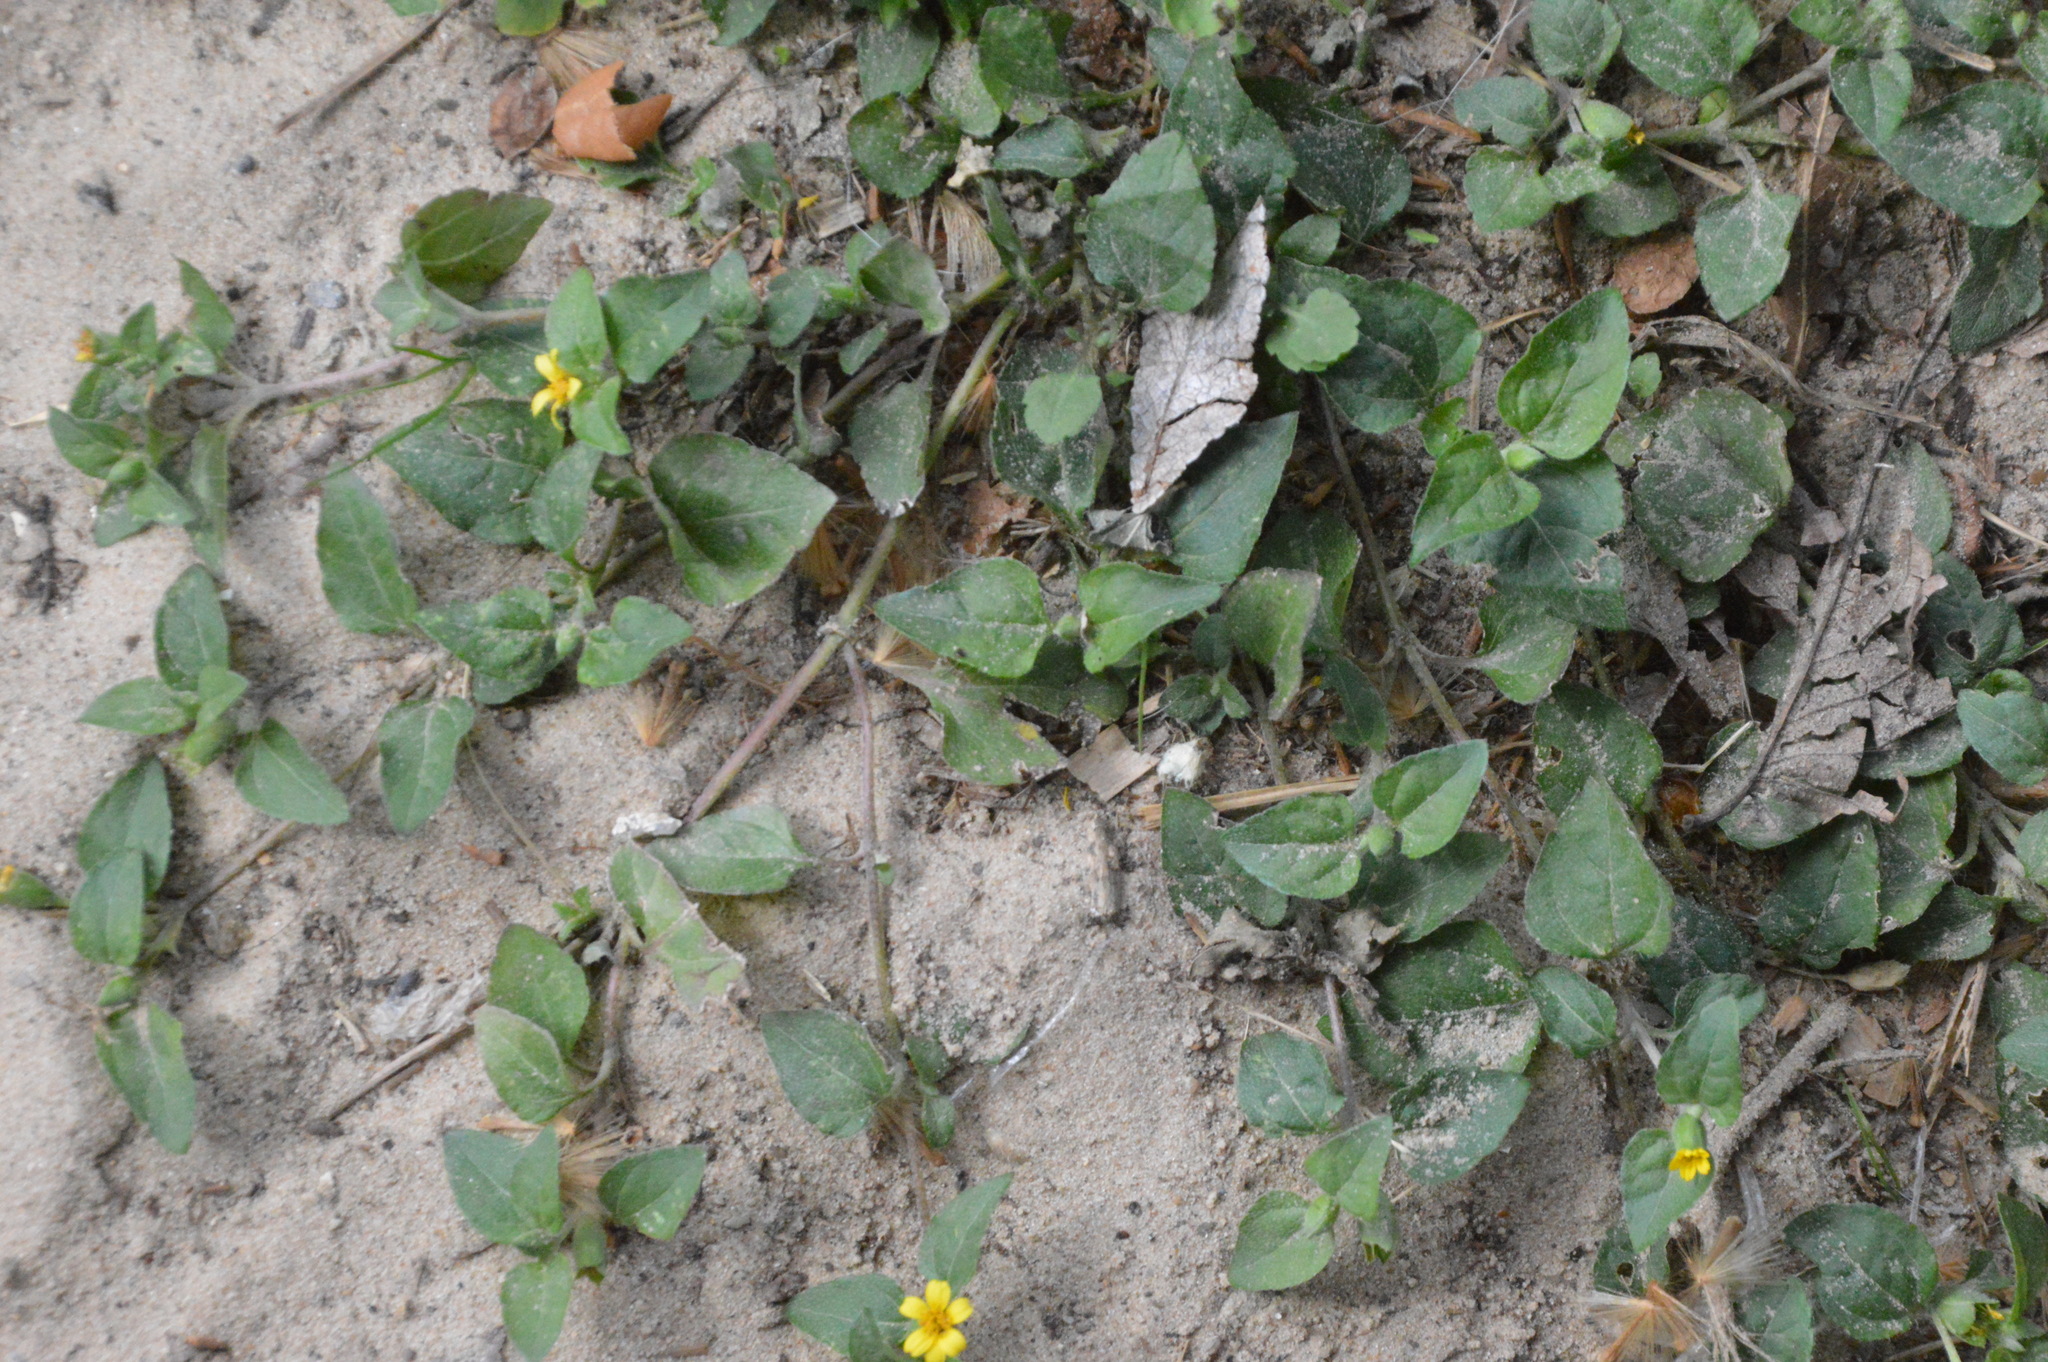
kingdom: Plantae
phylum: Tracheophyta
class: Magnoliopsida
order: Asterales
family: Asteraceae
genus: Calyptocarpus
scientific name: Calyptocarpus vialis
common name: Straggler daisy
